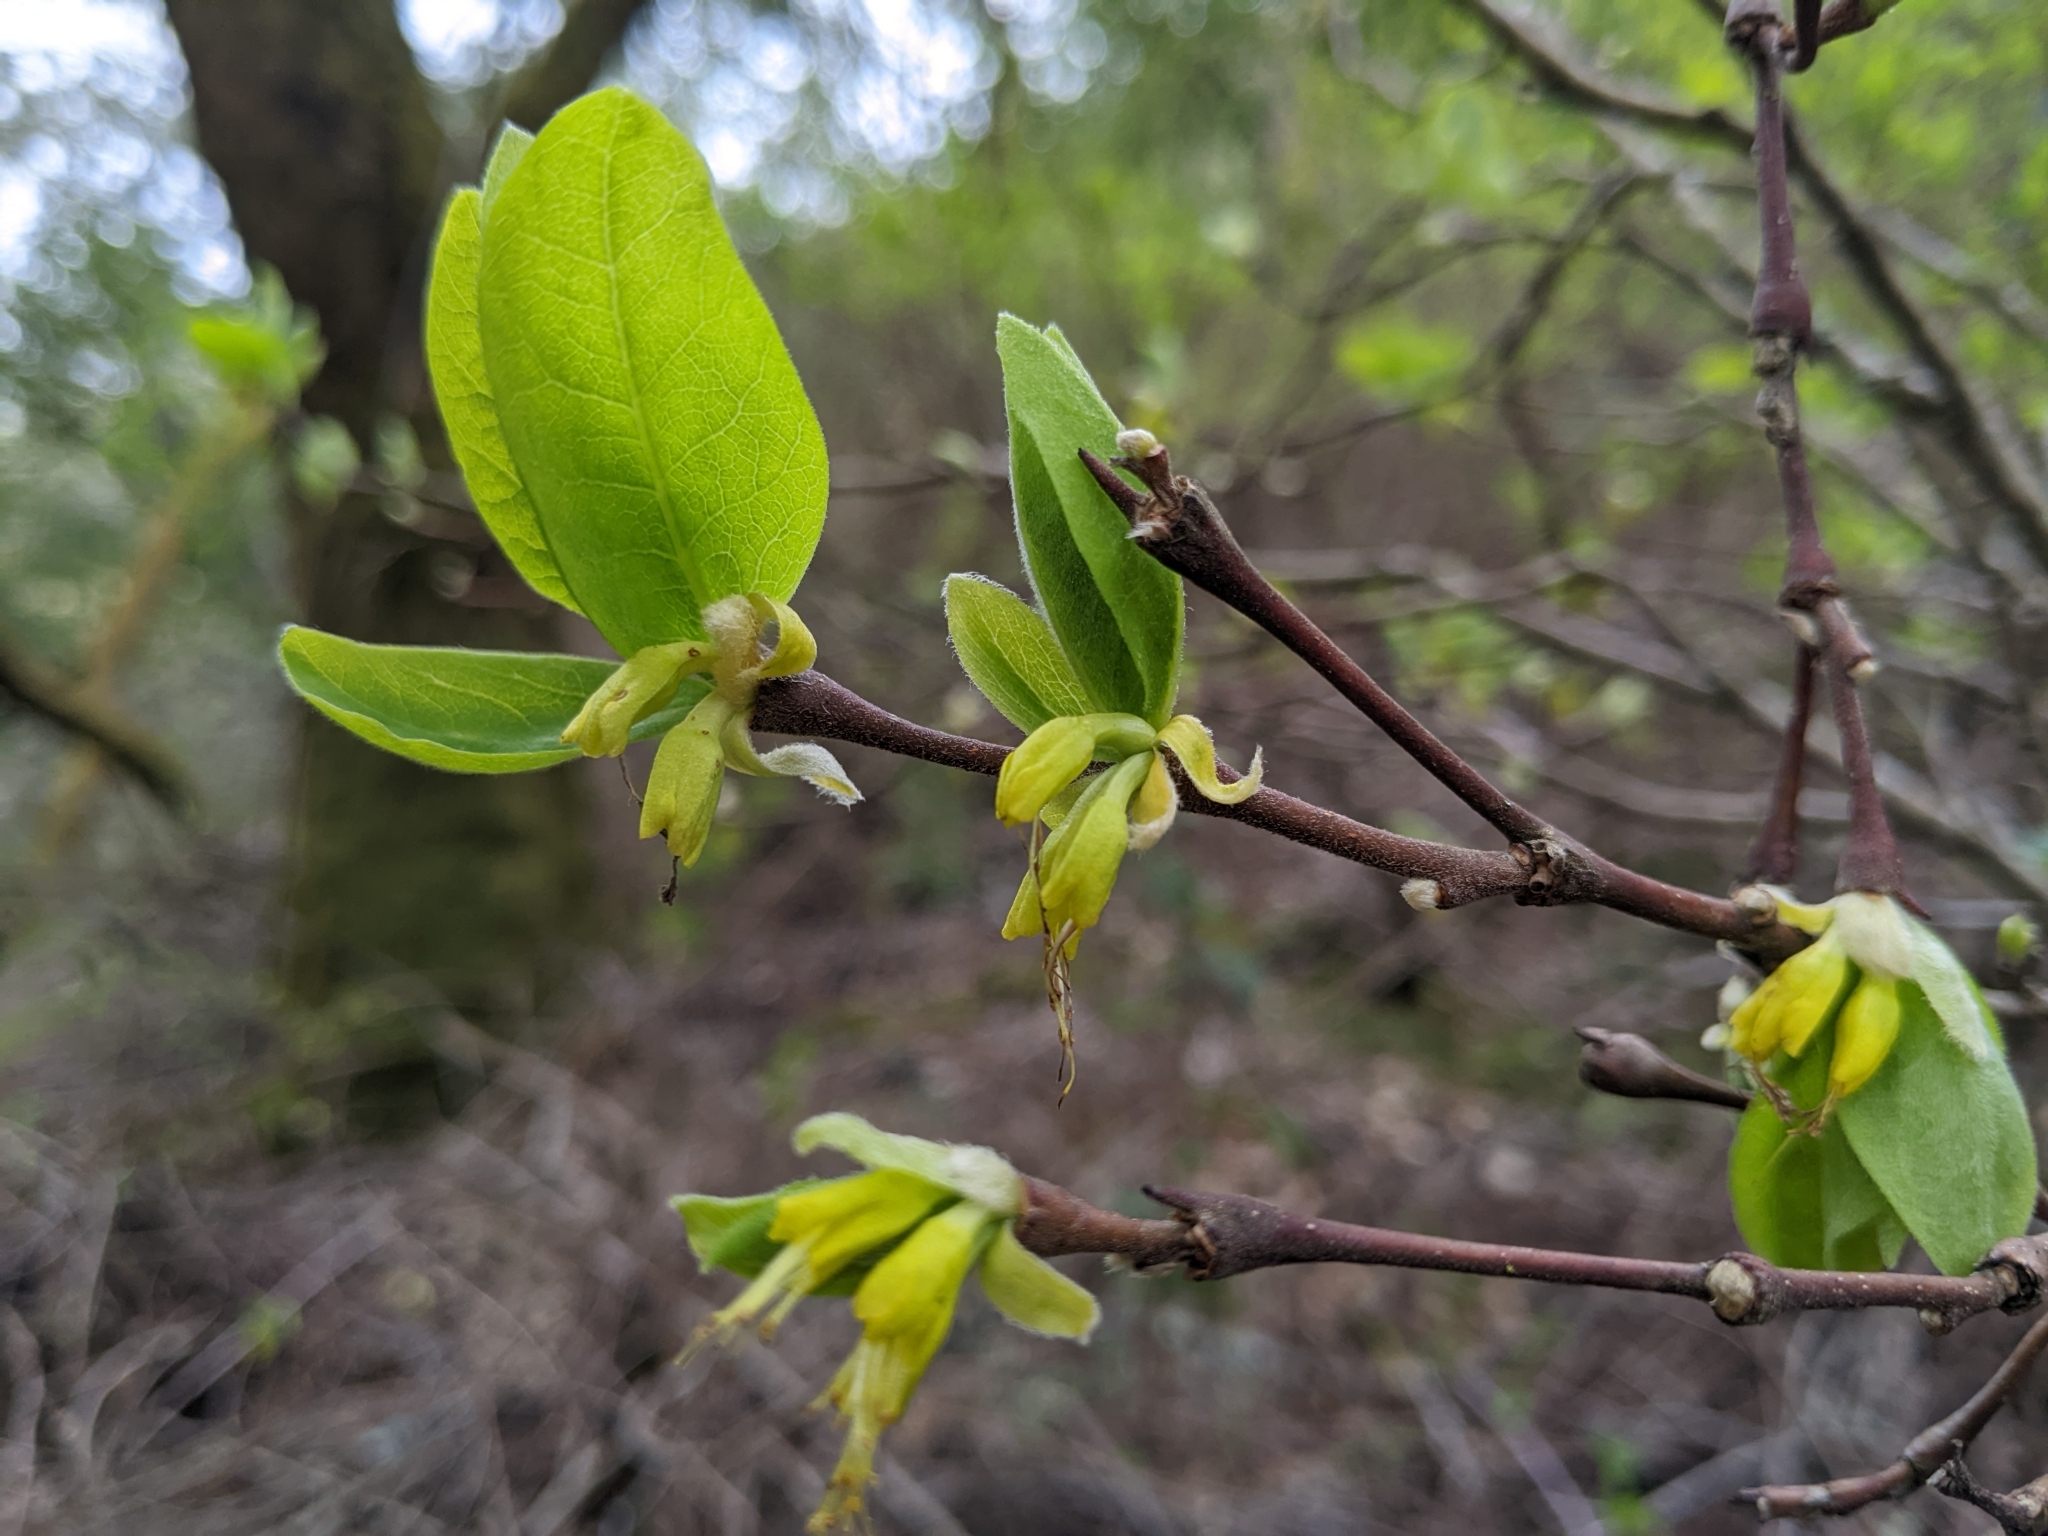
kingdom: Plantae
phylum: Tracheophyta
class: Magnoliopsida
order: Malvales
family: Thymelaeaceae
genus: Dirca
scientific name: Dirca occidentalis
